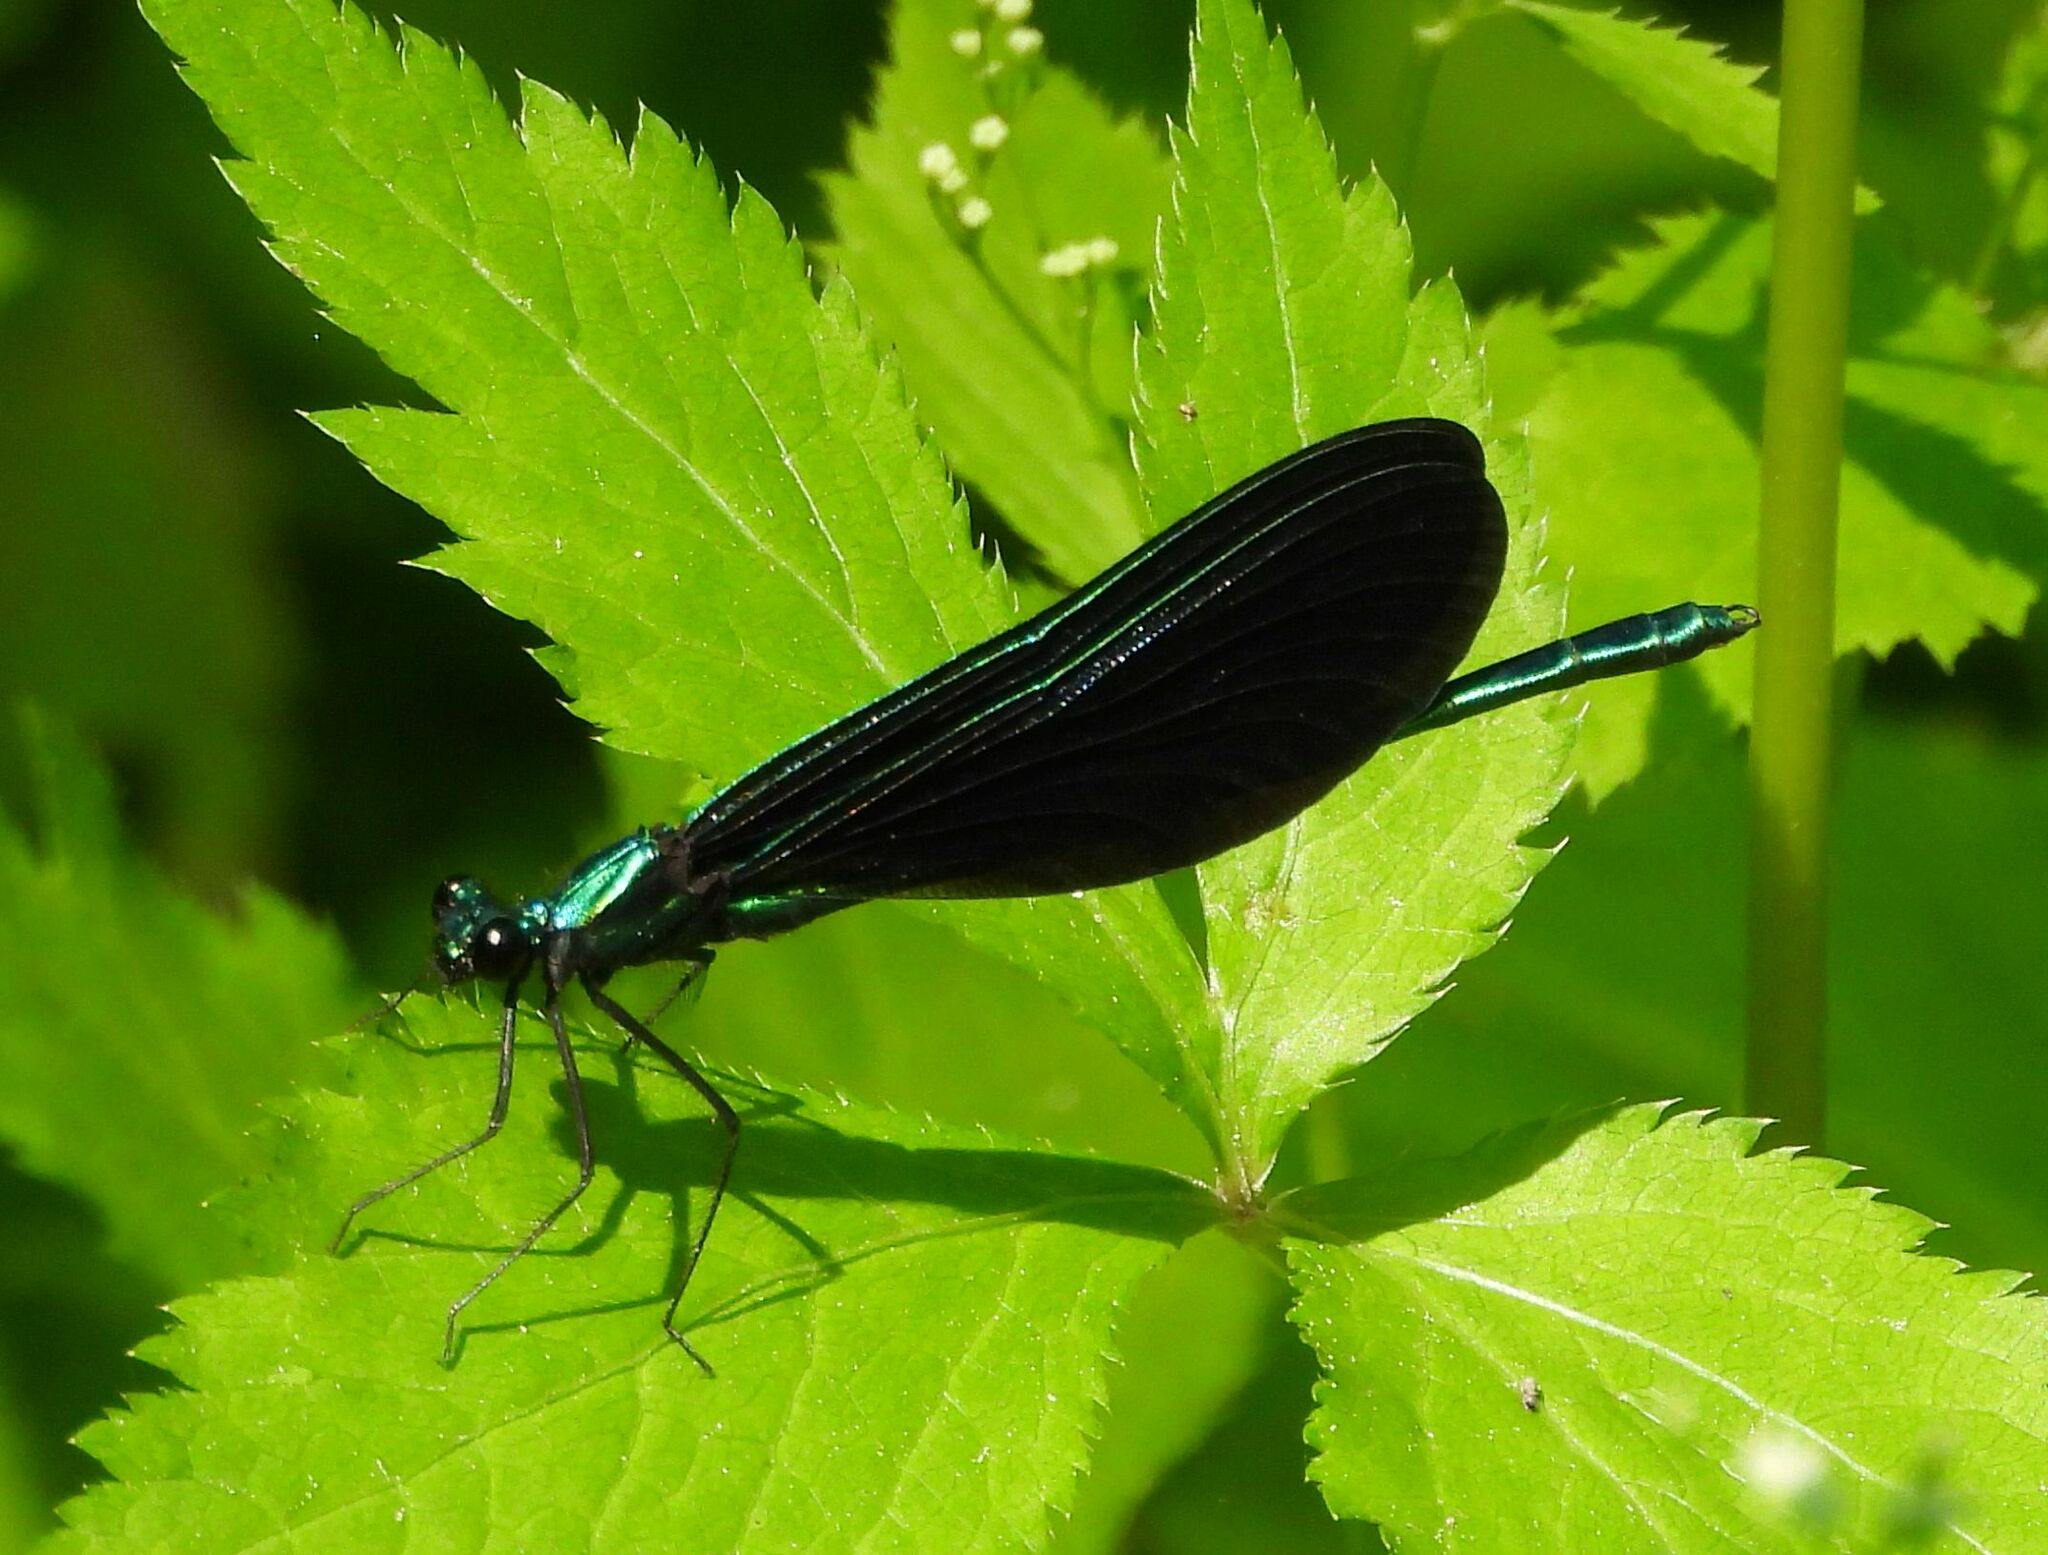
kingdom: Animalia
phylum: Arthropoda
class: Insecta
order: Odonata
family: Calopterygidae
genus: Calopteryx
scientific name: Calopteryx maculata
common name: Ebony jewelwing
